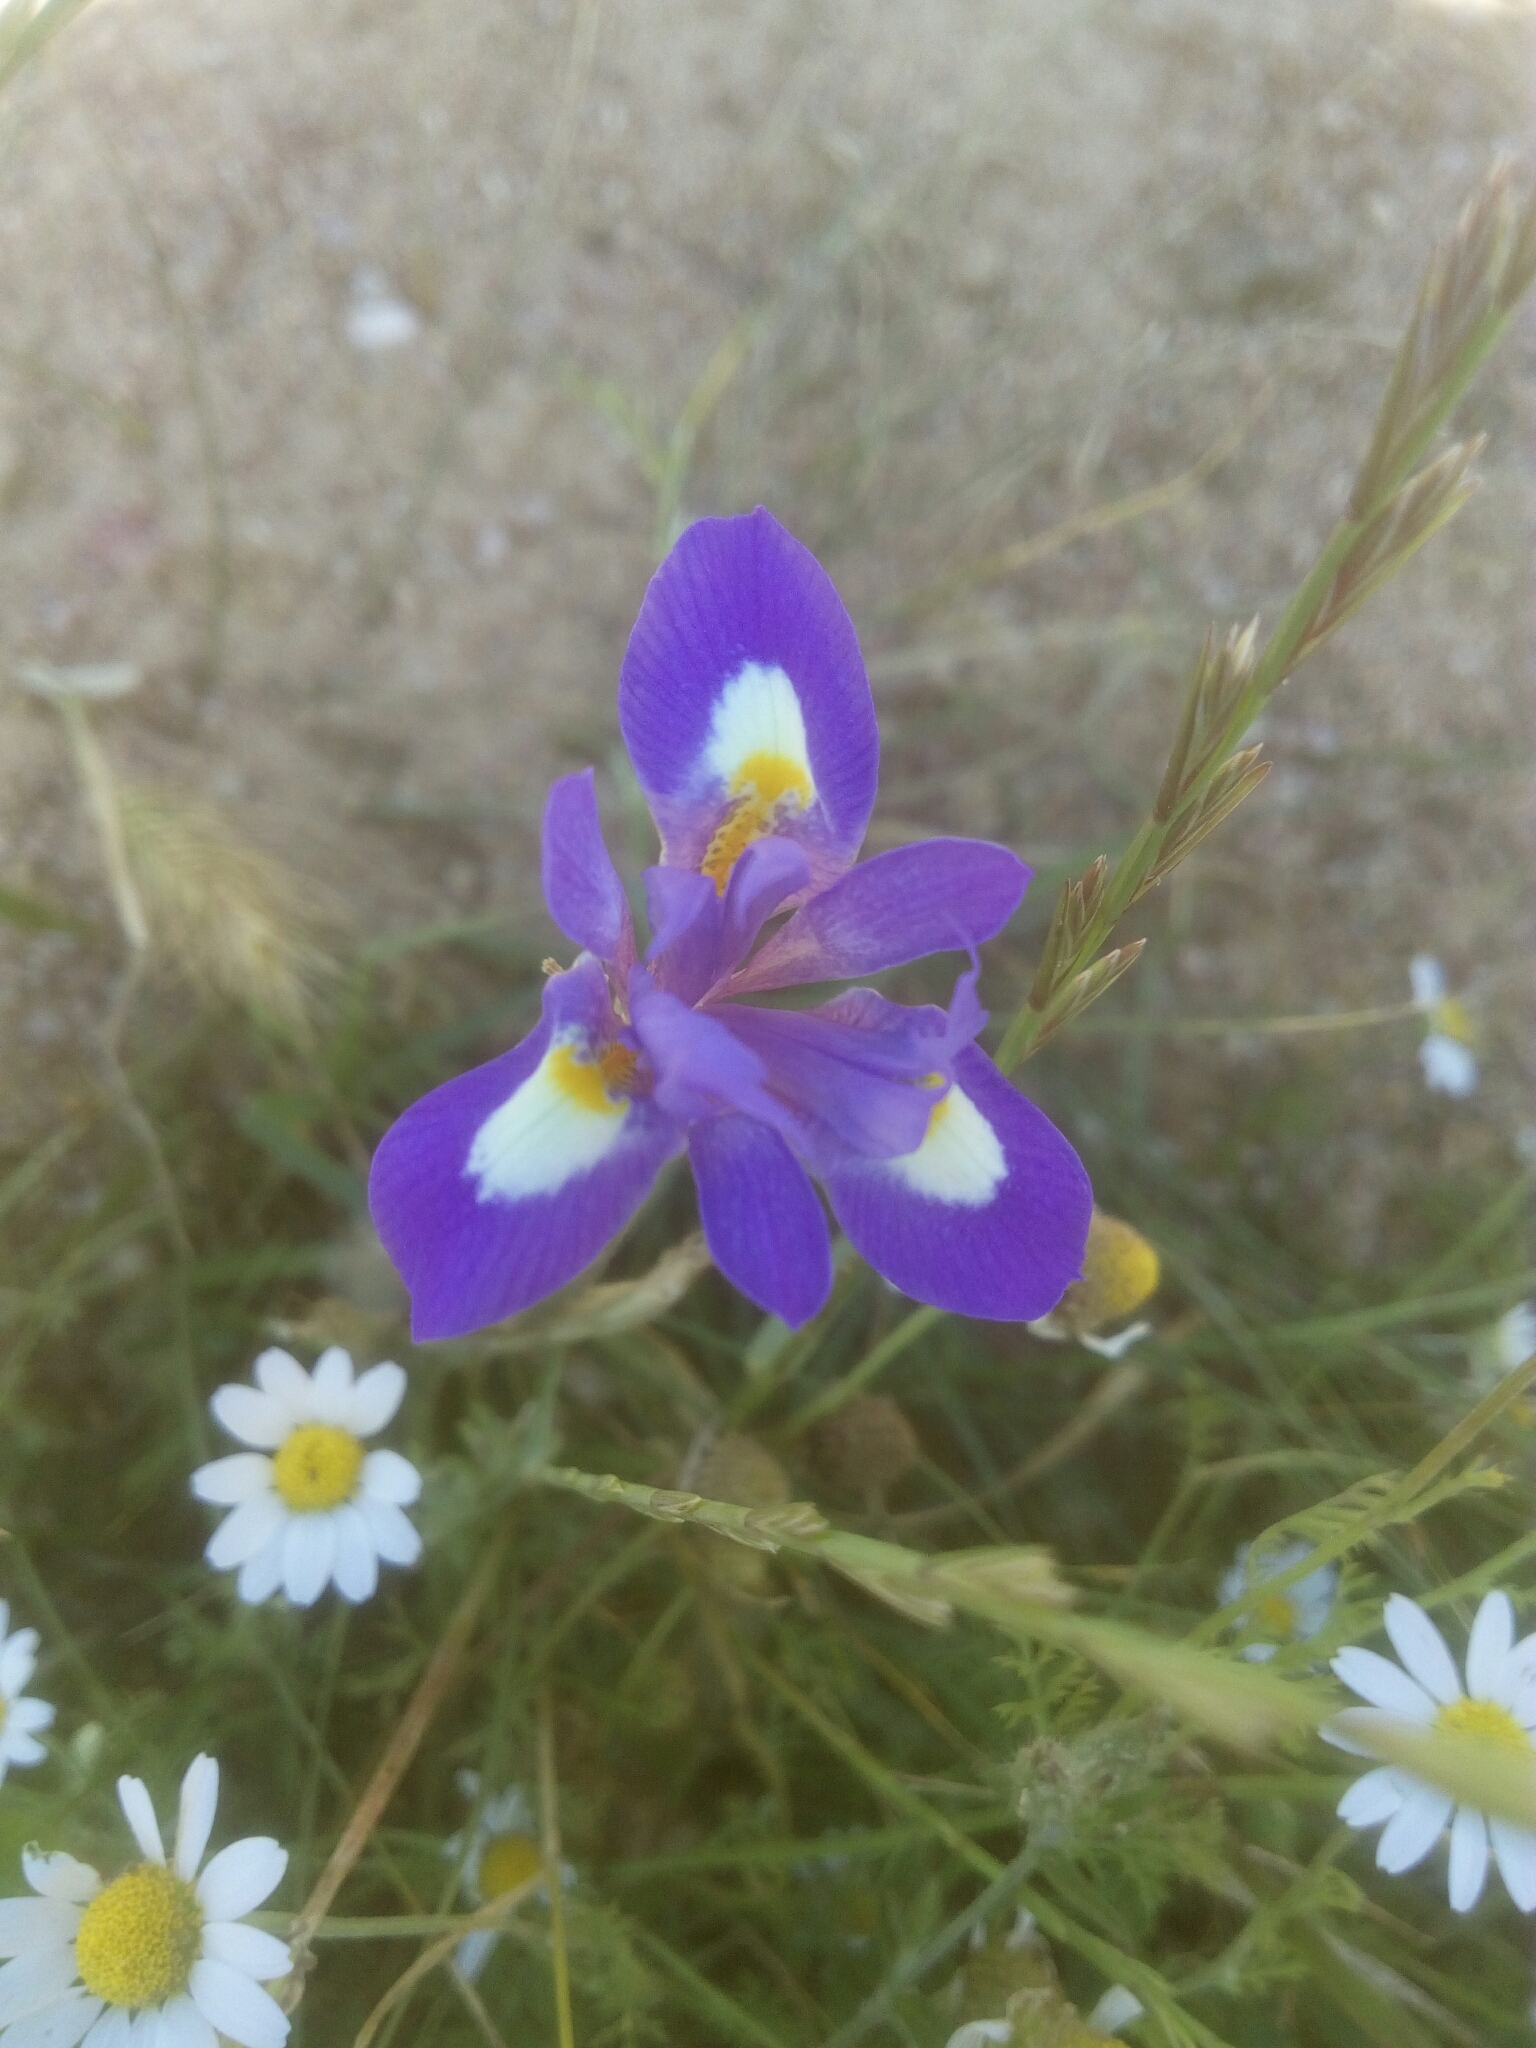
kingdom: Plantae
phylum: Tracheophyta
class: Liliopsida
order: Asparagales
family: Iridaceae
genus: Moraea
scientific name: Moraea sisyrinchium
